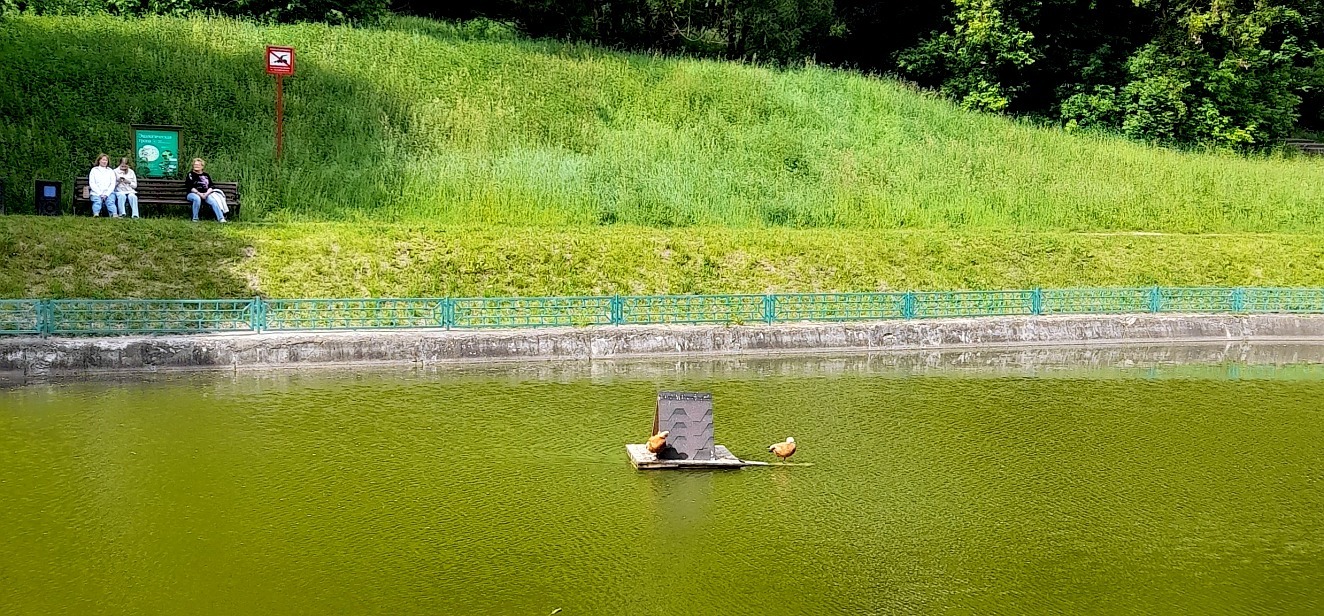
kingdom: Animalia
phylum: Chordata
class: Aves
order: Anseriformes
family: Anatidae
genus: Tadorna
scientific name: Tadorna ferruginea
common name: Ruddy shelduck
